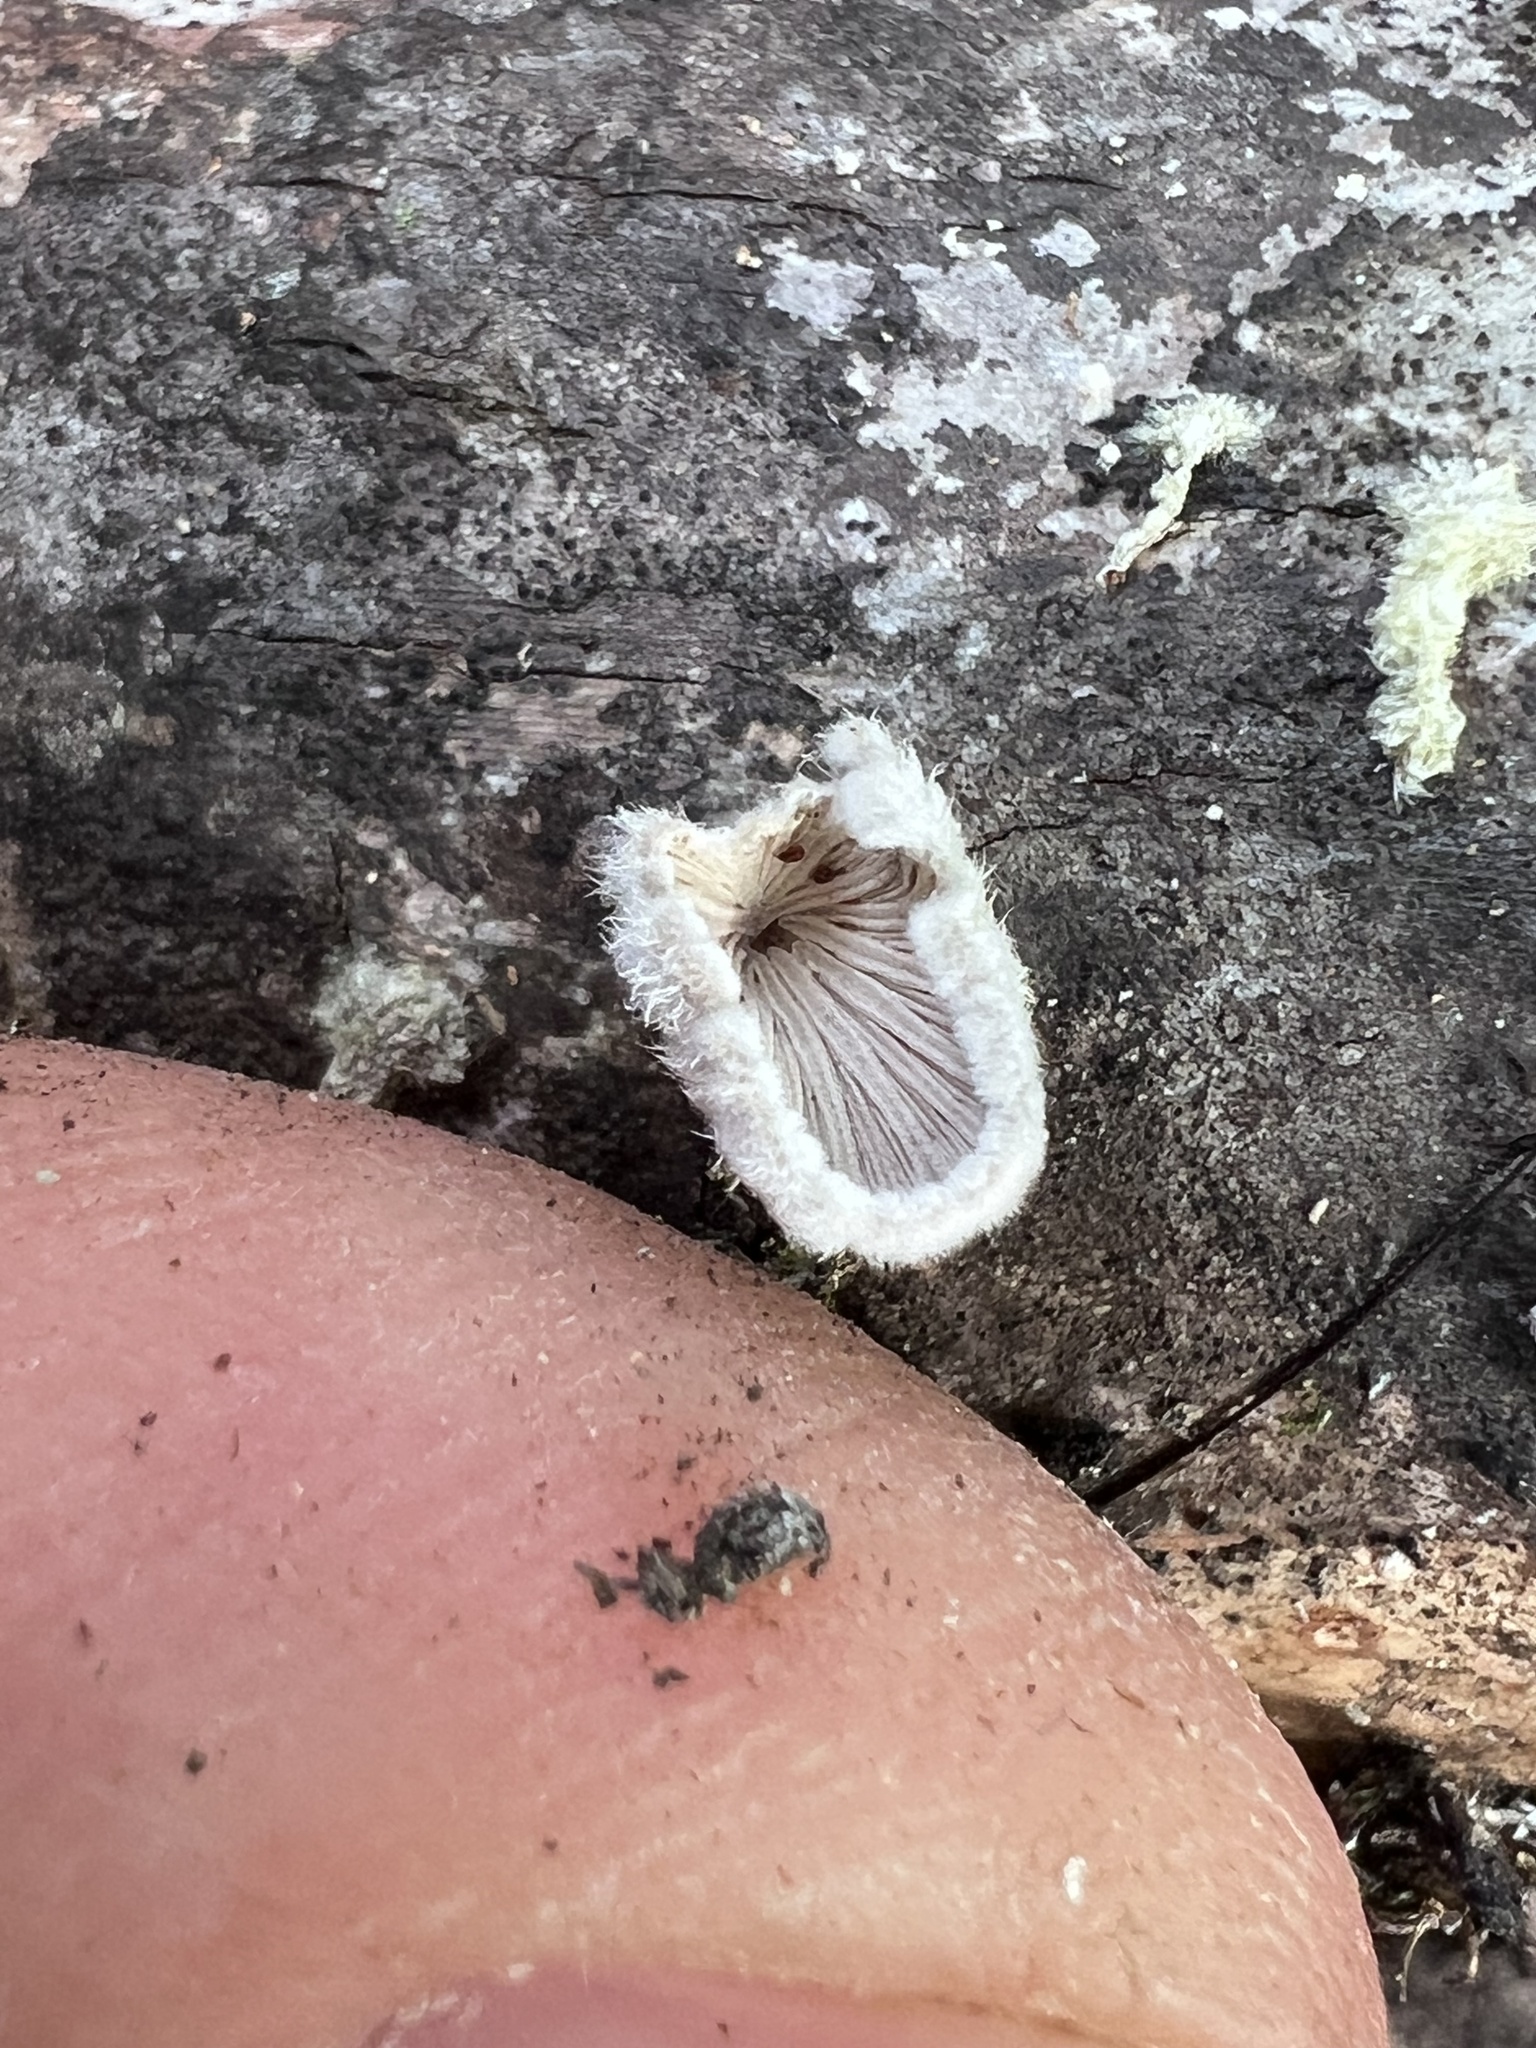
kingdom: Fungi
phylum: Basidiomycota
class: Agaricomycetes
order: Agaricales
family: Schizophyllaceae
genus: Schizophyllum
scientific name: Schizophyllum commune
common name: Common porecrust
